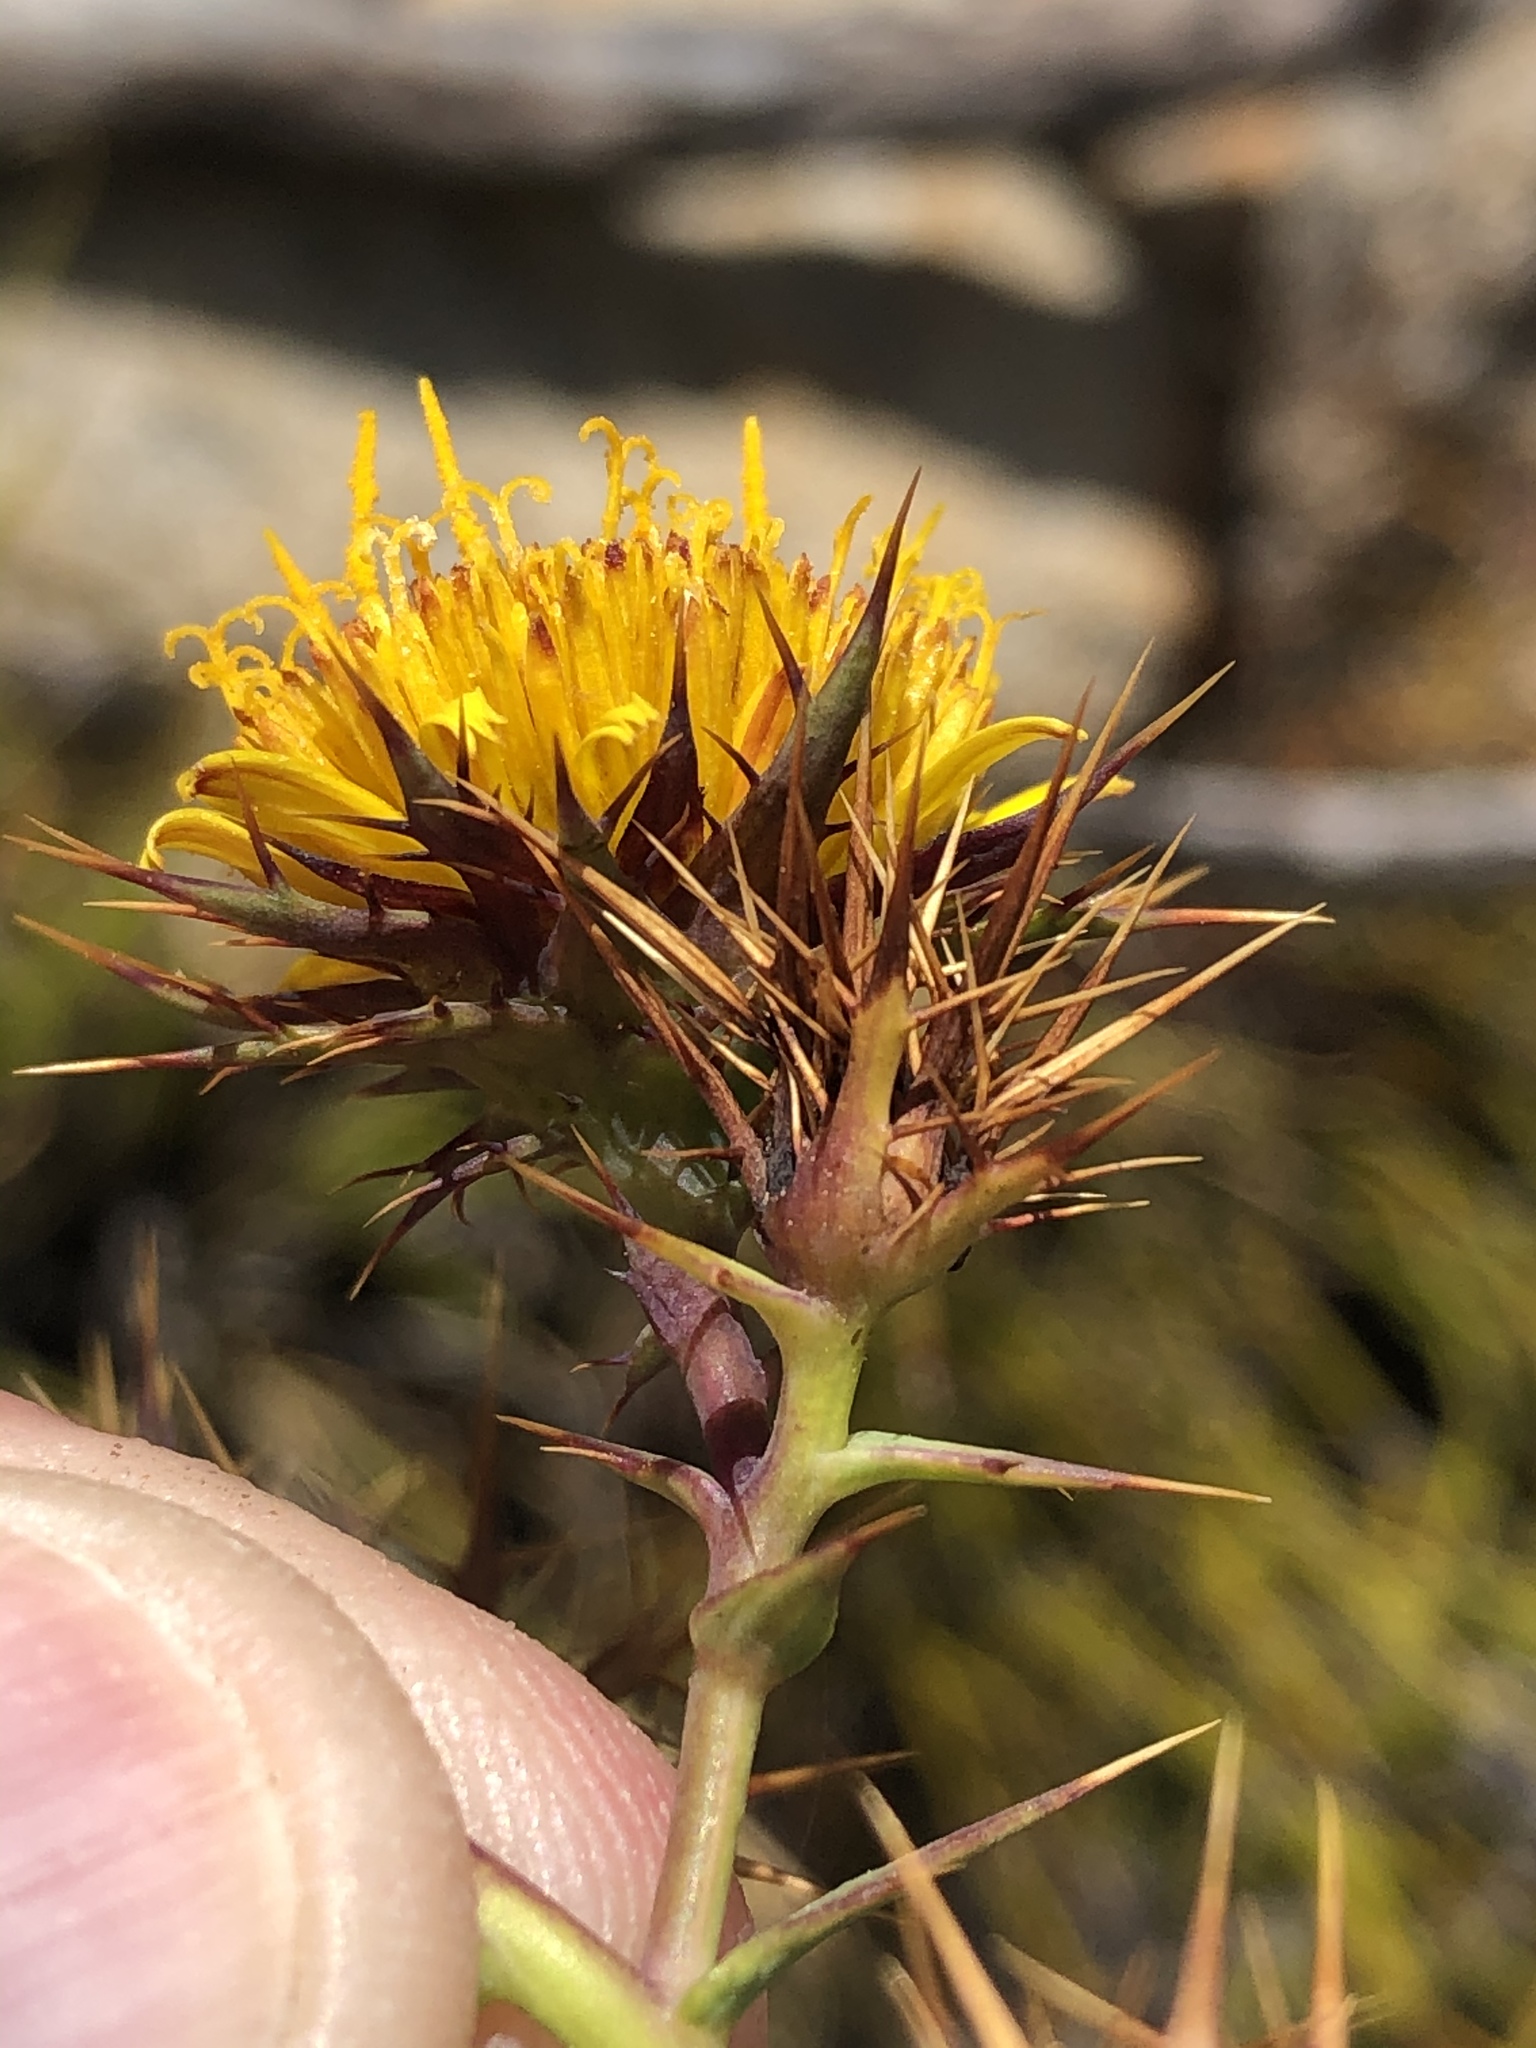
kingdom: Plantae
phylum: Tracheophyta
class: Magnoliopsida
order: Asterales
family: Asteraceae
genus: Berkheya
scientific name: Berkheya cruciata
